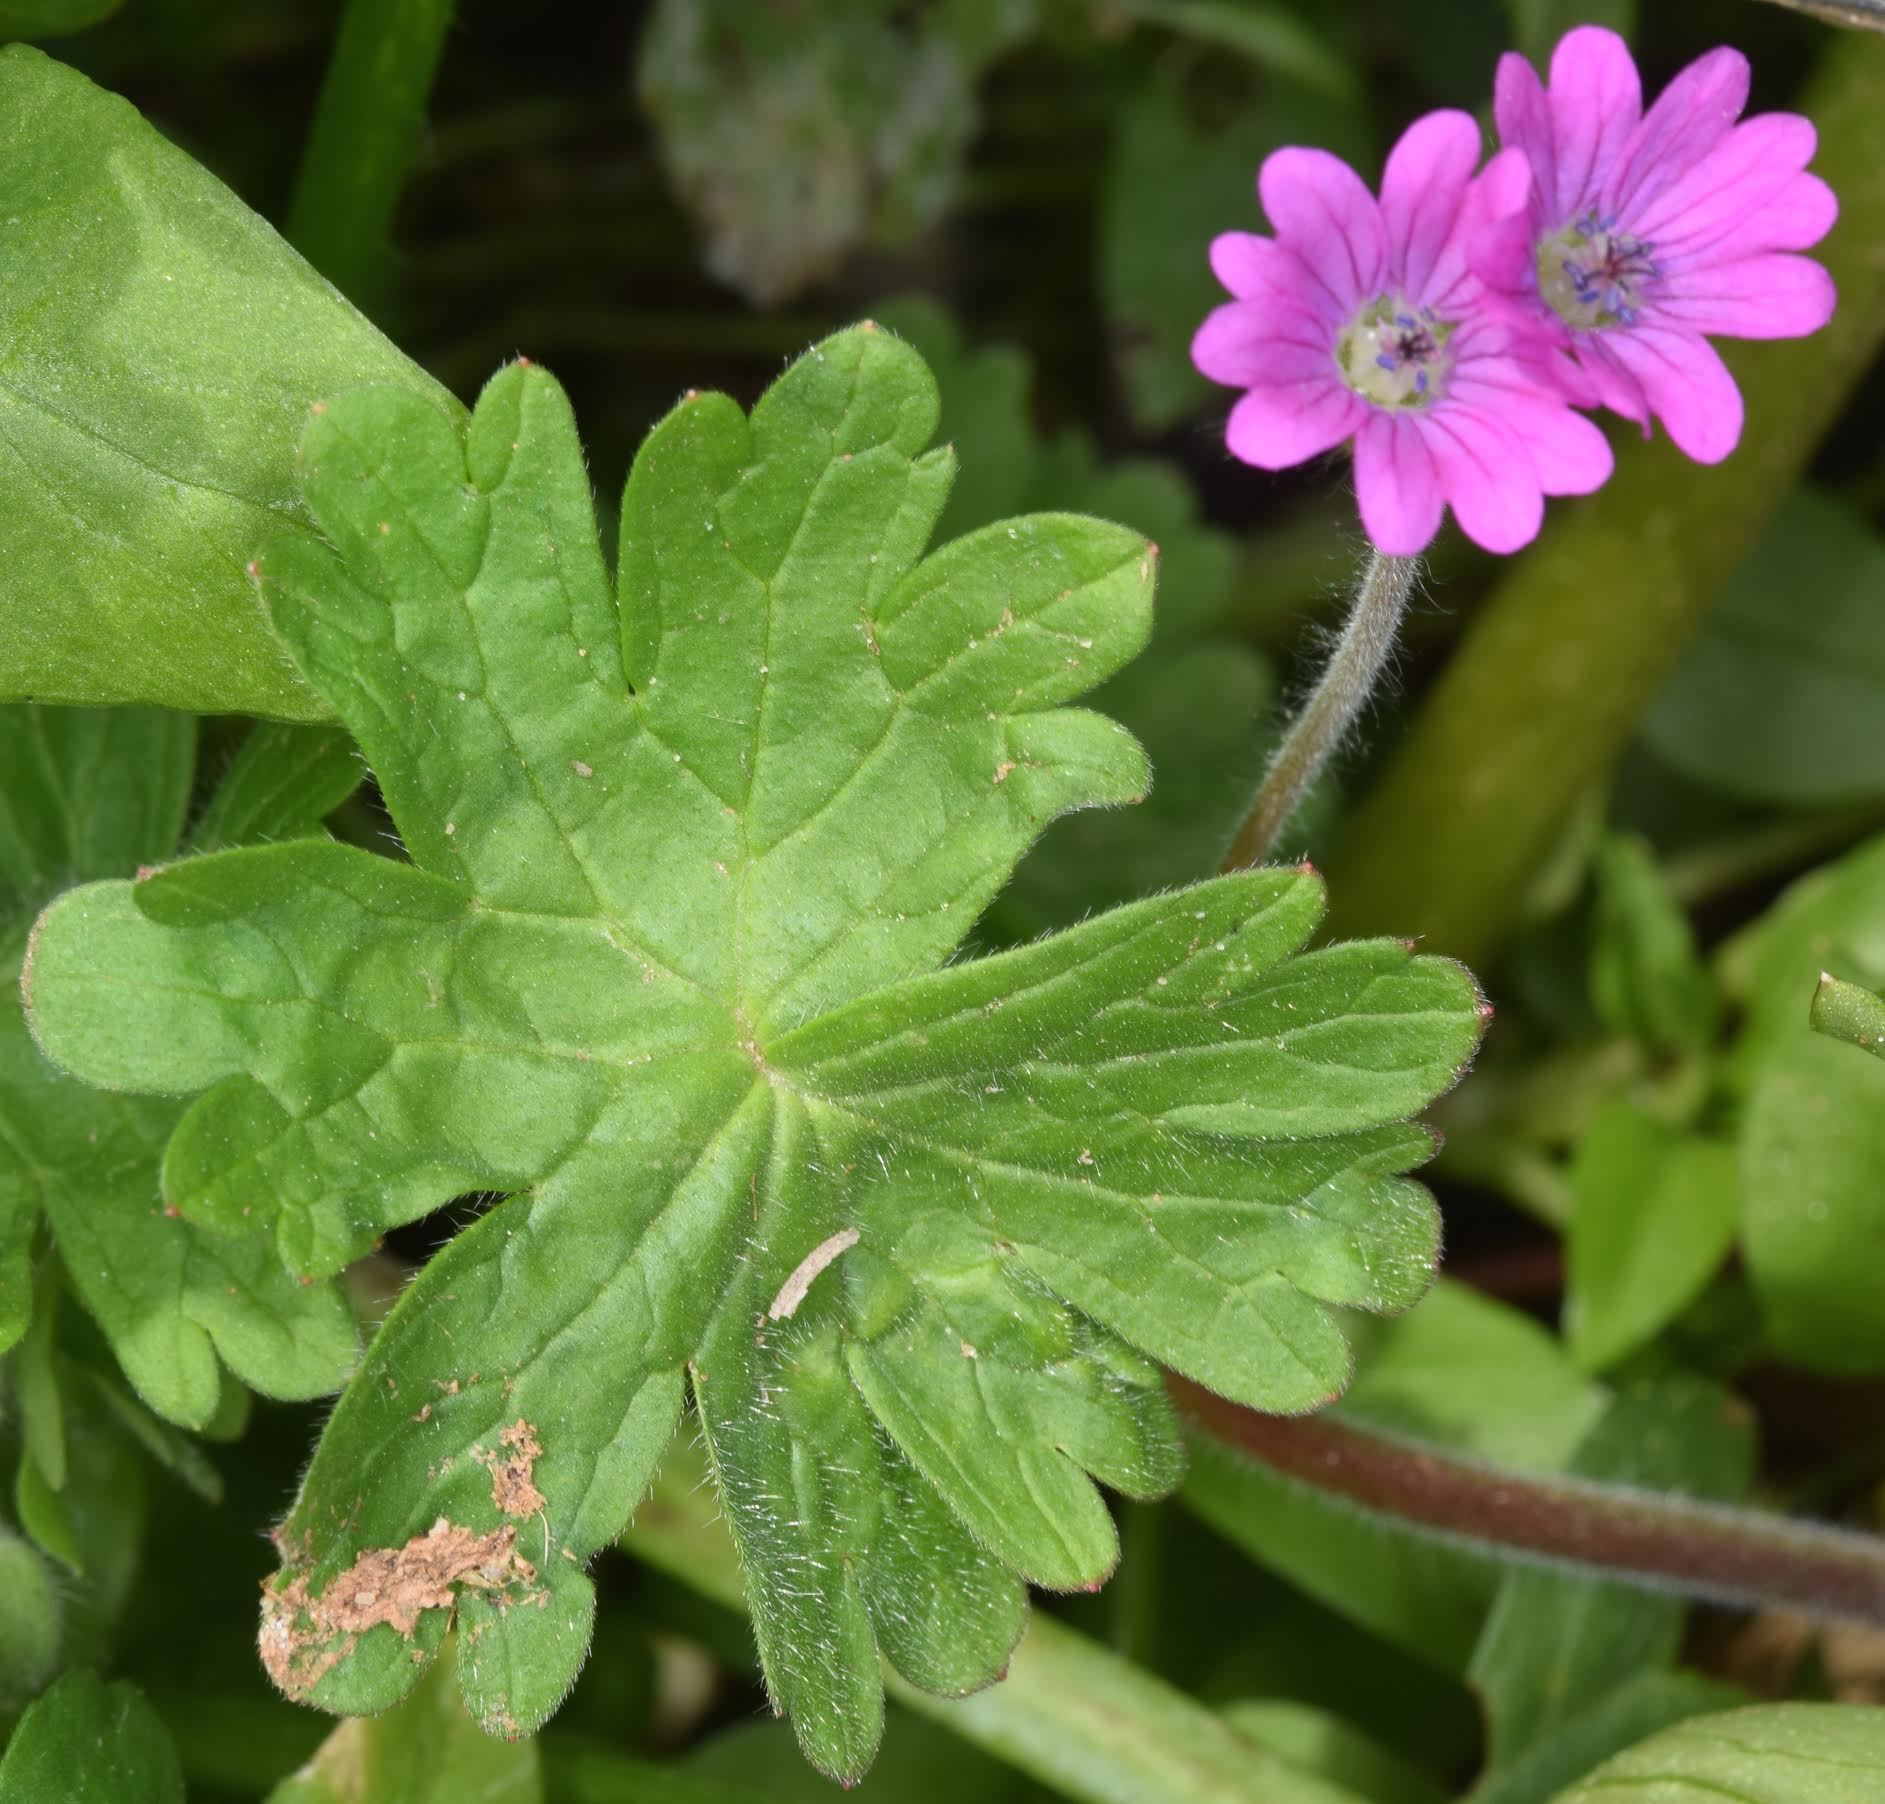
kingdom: Plantae
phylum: Tracheophyta
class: Magnoliopsida
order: Geraniales
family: Geraniaceae
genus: Geranium
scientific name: Geranium molle
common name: Dove's-foot crane's-bill
